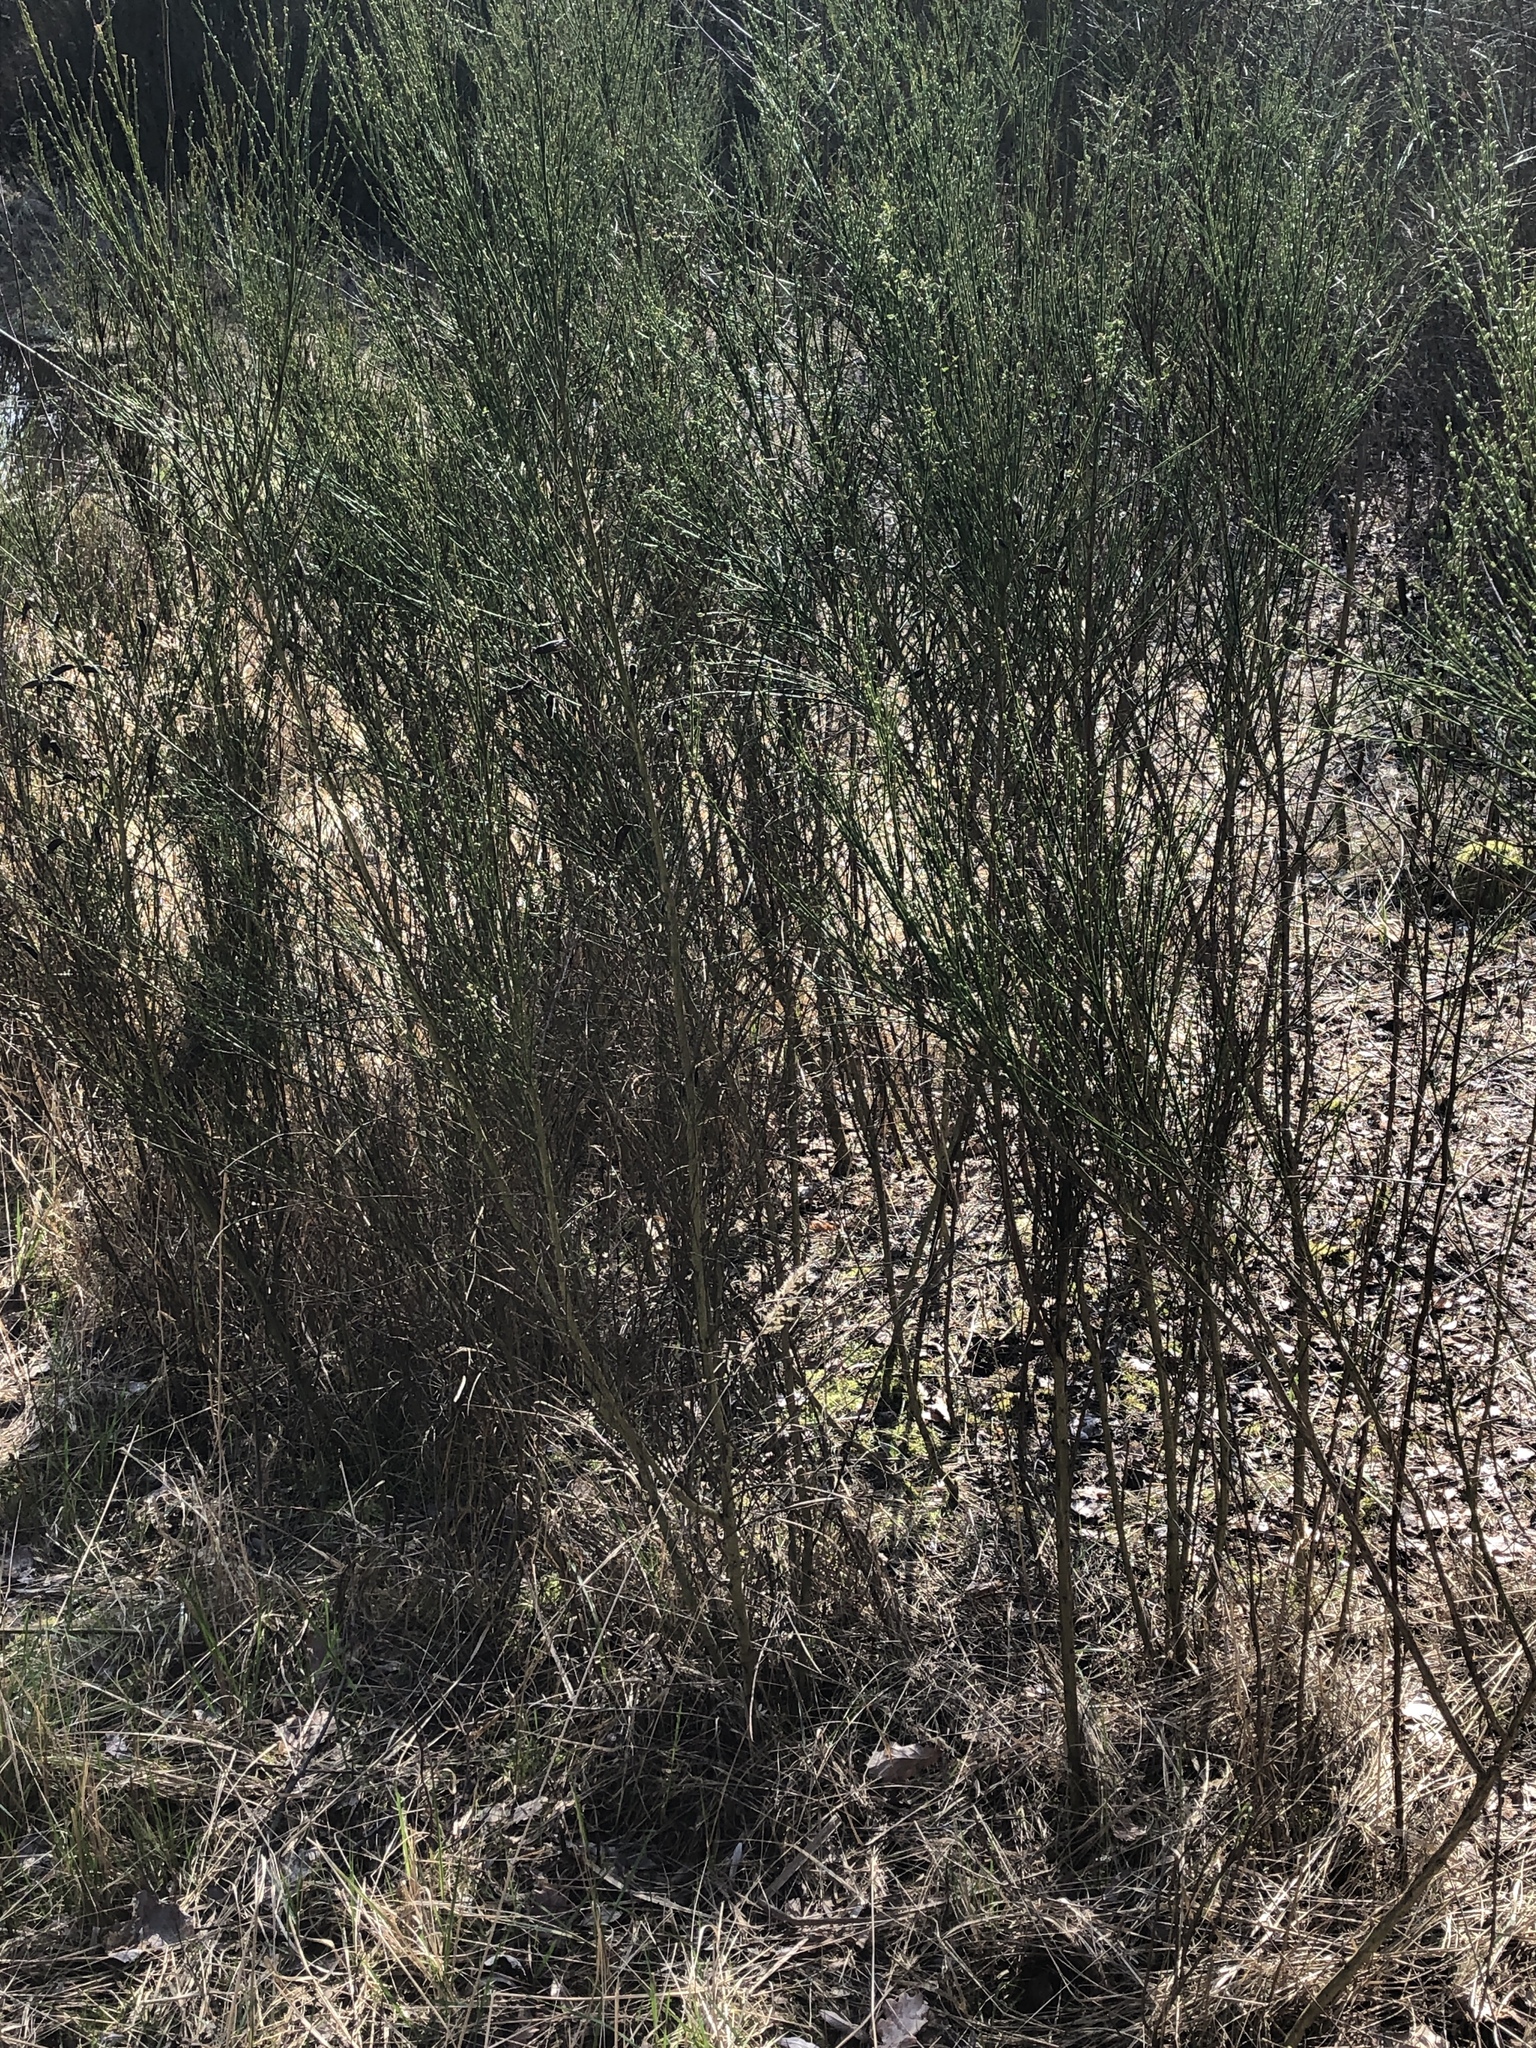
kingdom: Plantae
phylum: Tracheophyta
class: Magnoliopsida
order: Fabales
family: Fabaceae
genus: Cytisus
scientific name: Cytisus scoparius
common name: Scotch broom
